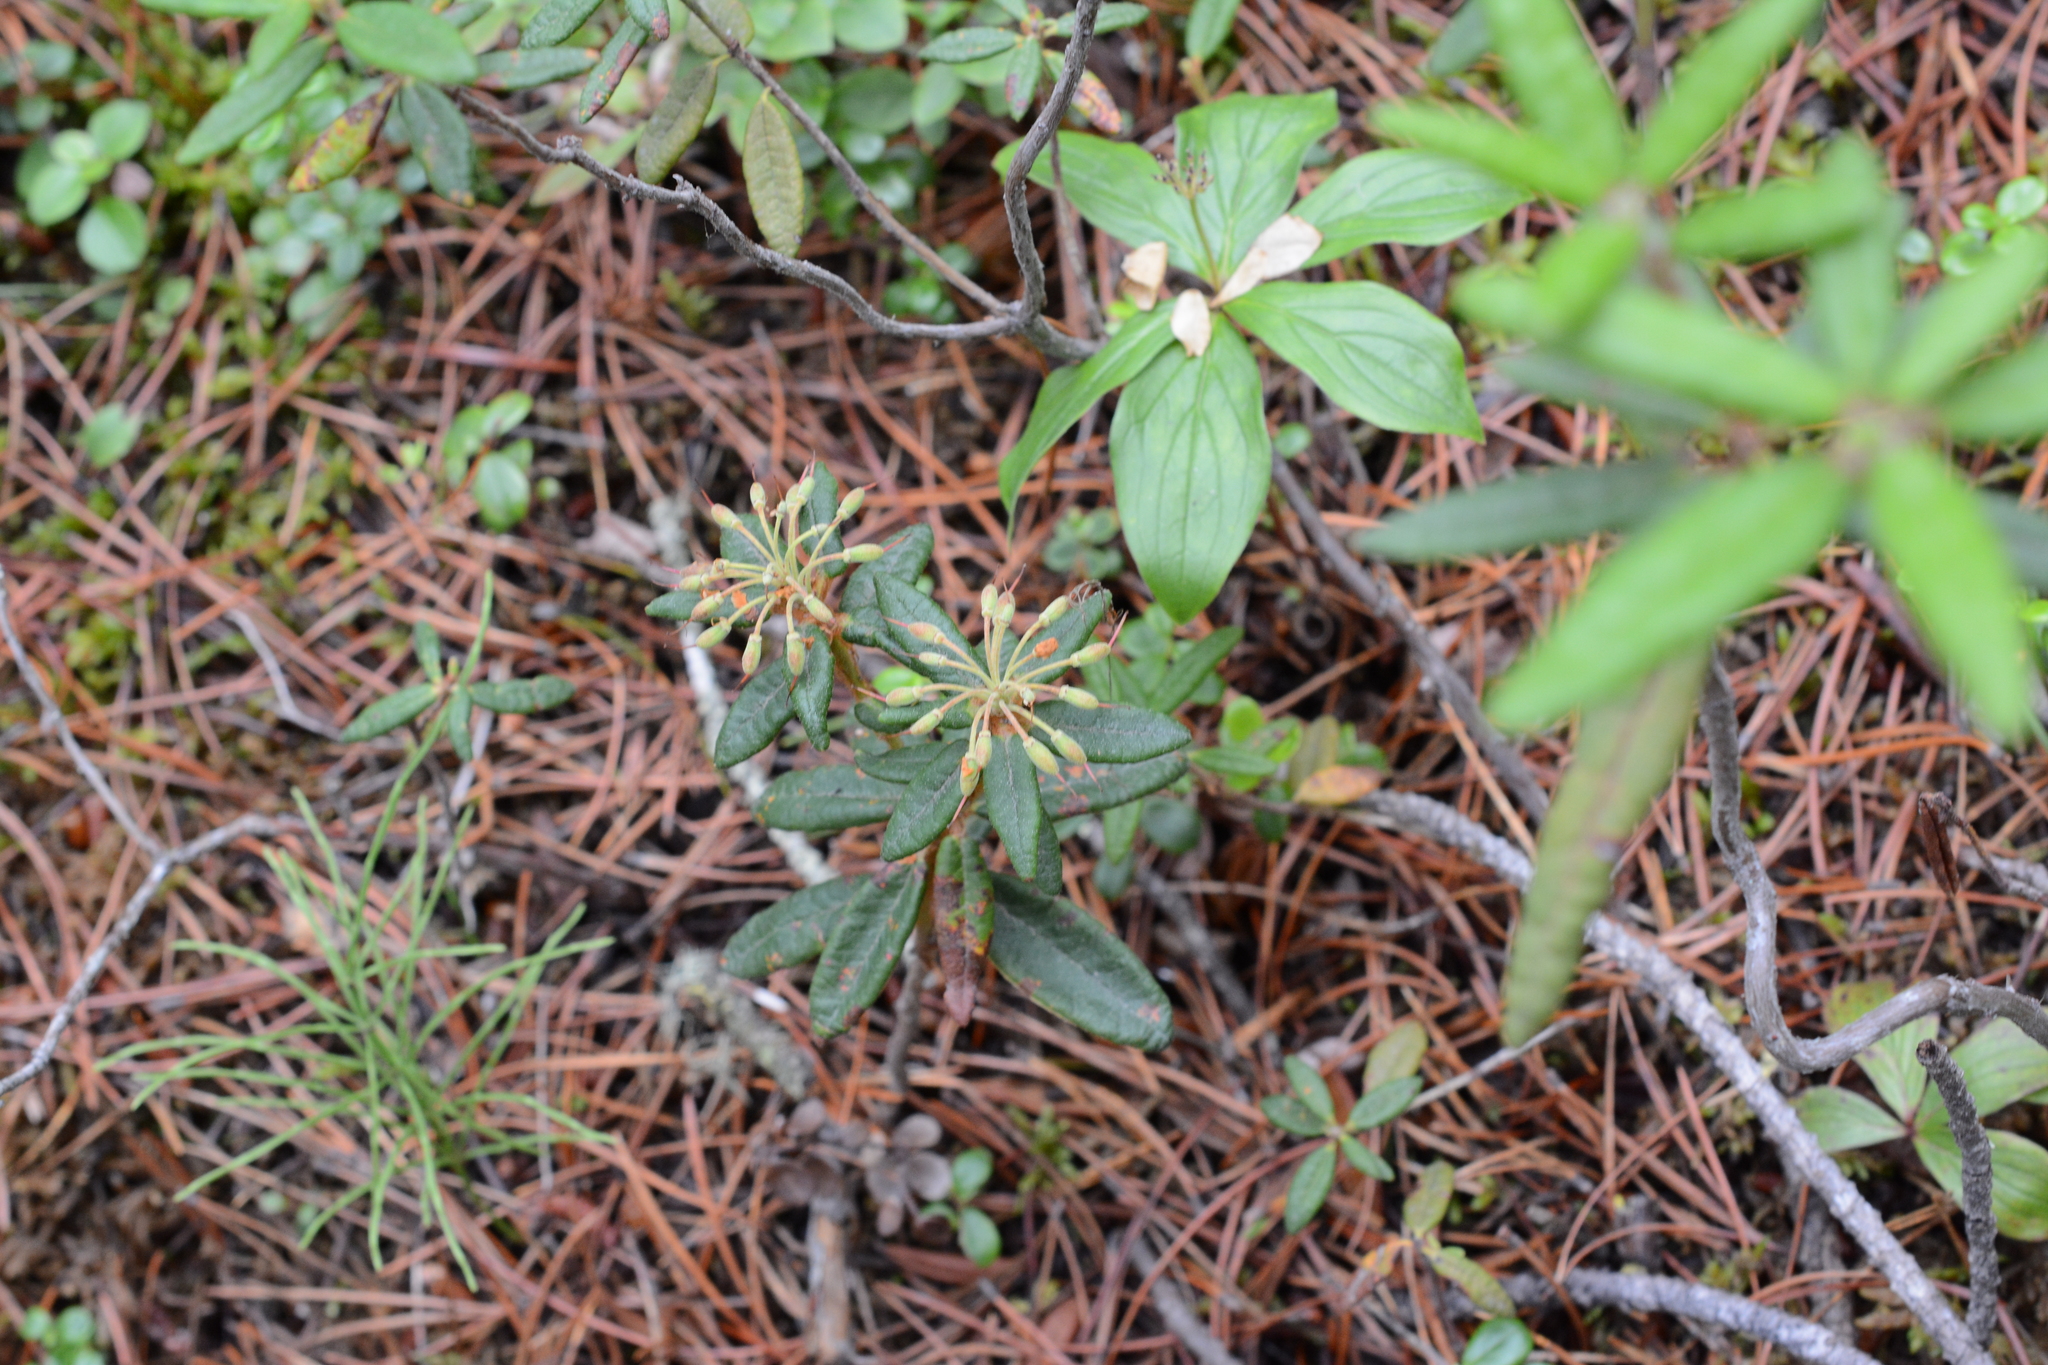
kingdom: Plantae
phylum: Tracheophyta
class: Magnoliopsida
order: Ericales
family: Ericaceae
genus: Rhododendron
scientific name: Rhododendron groenlandicum
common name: Bog labrador tea
